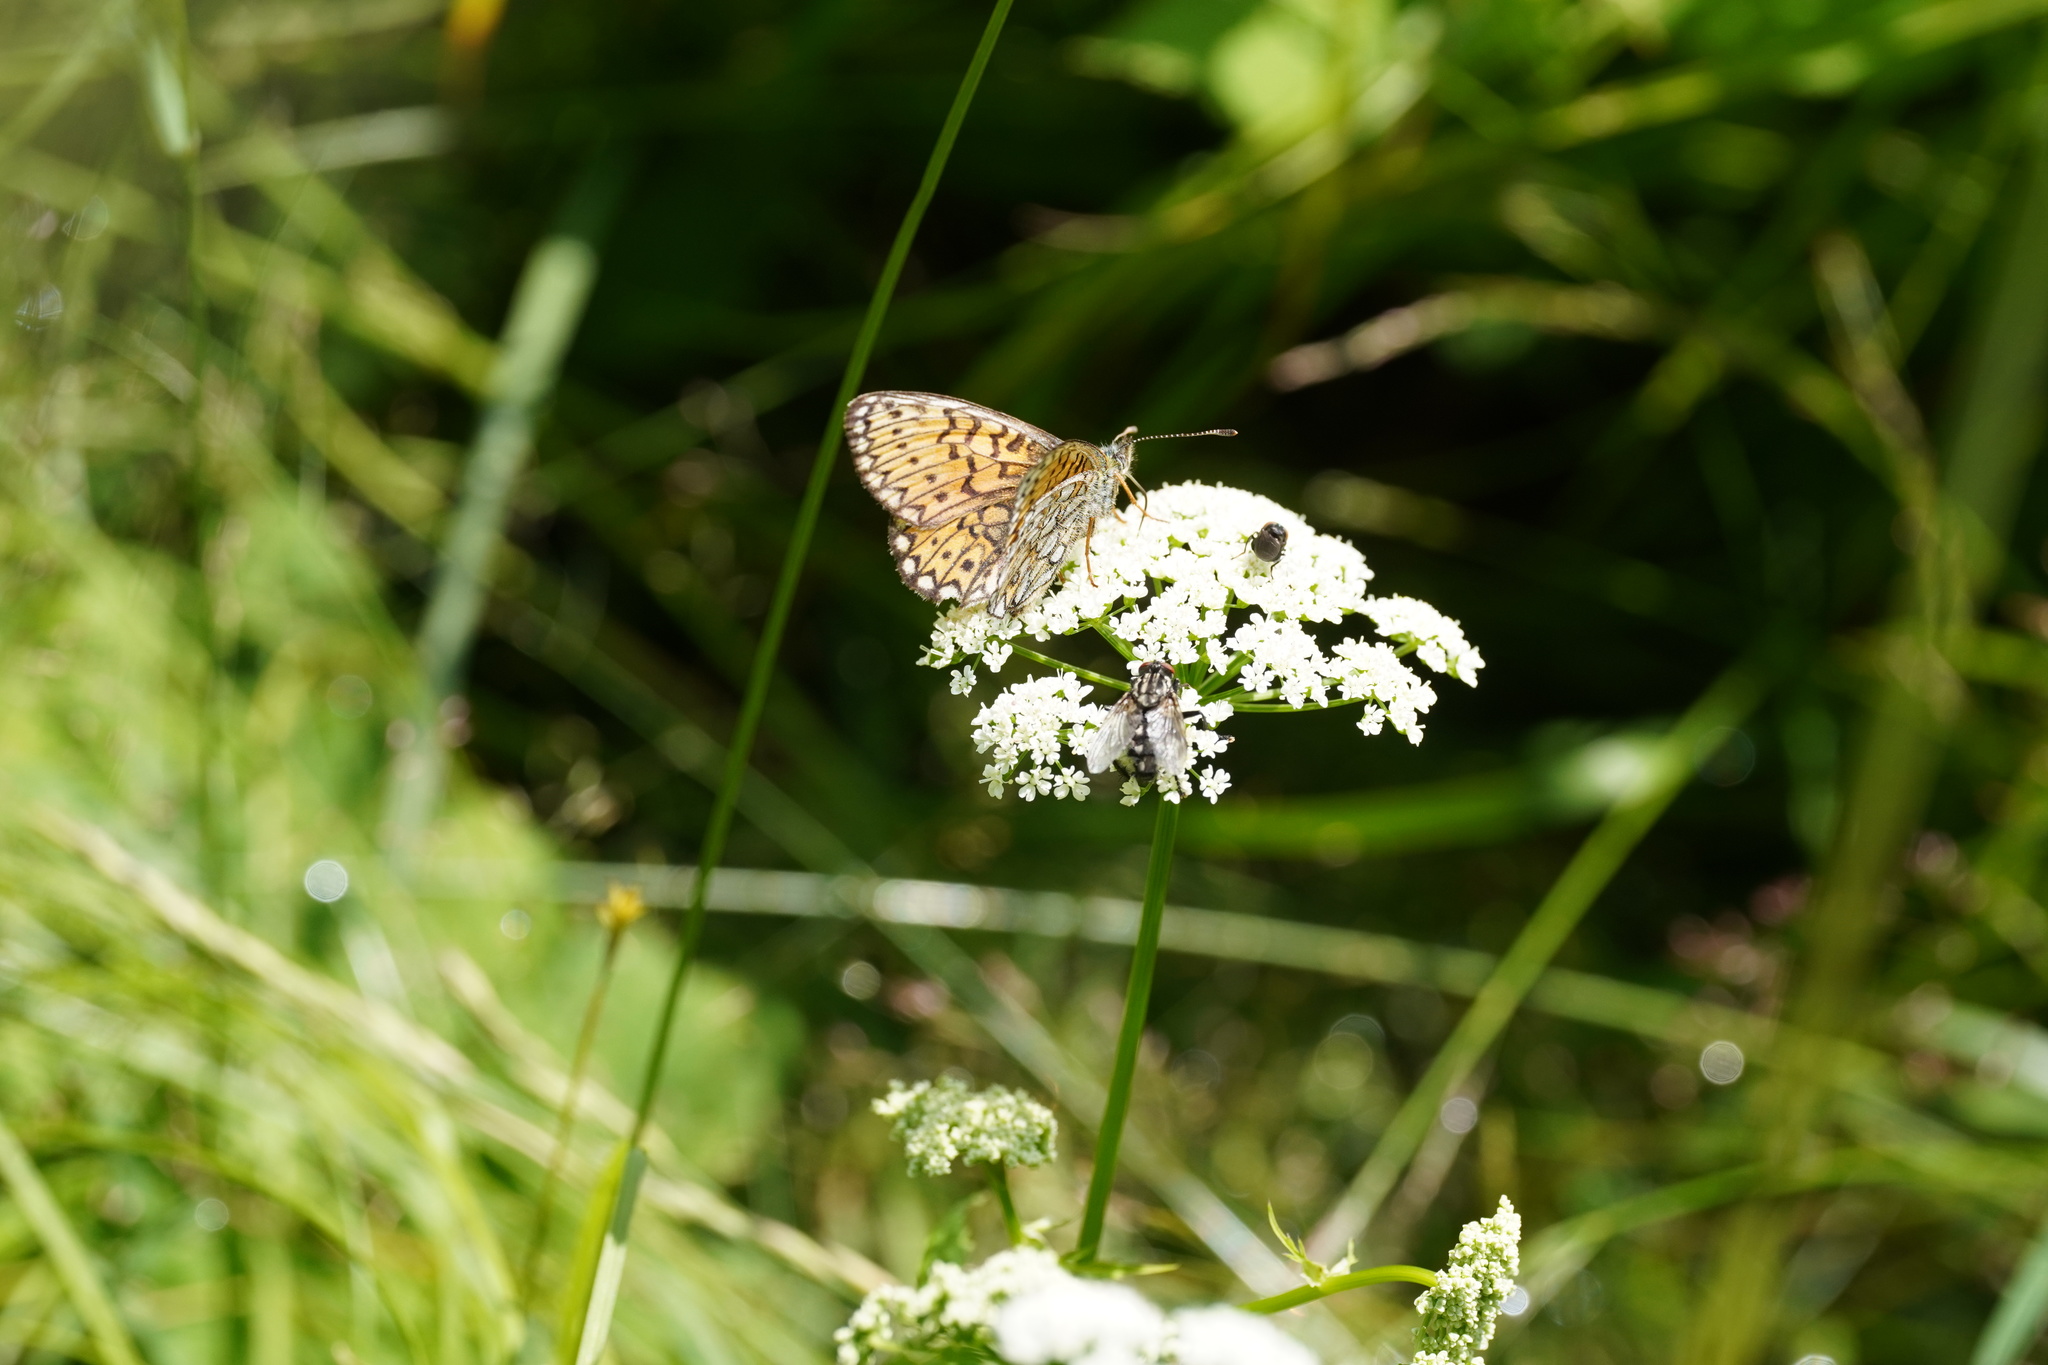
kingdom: Animalia
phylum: Arthropoda
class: Insecta
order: Lepidoptera
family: Nymphalidae
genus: Boloria
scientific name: Boloria eunomia
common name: Bog fritillary
